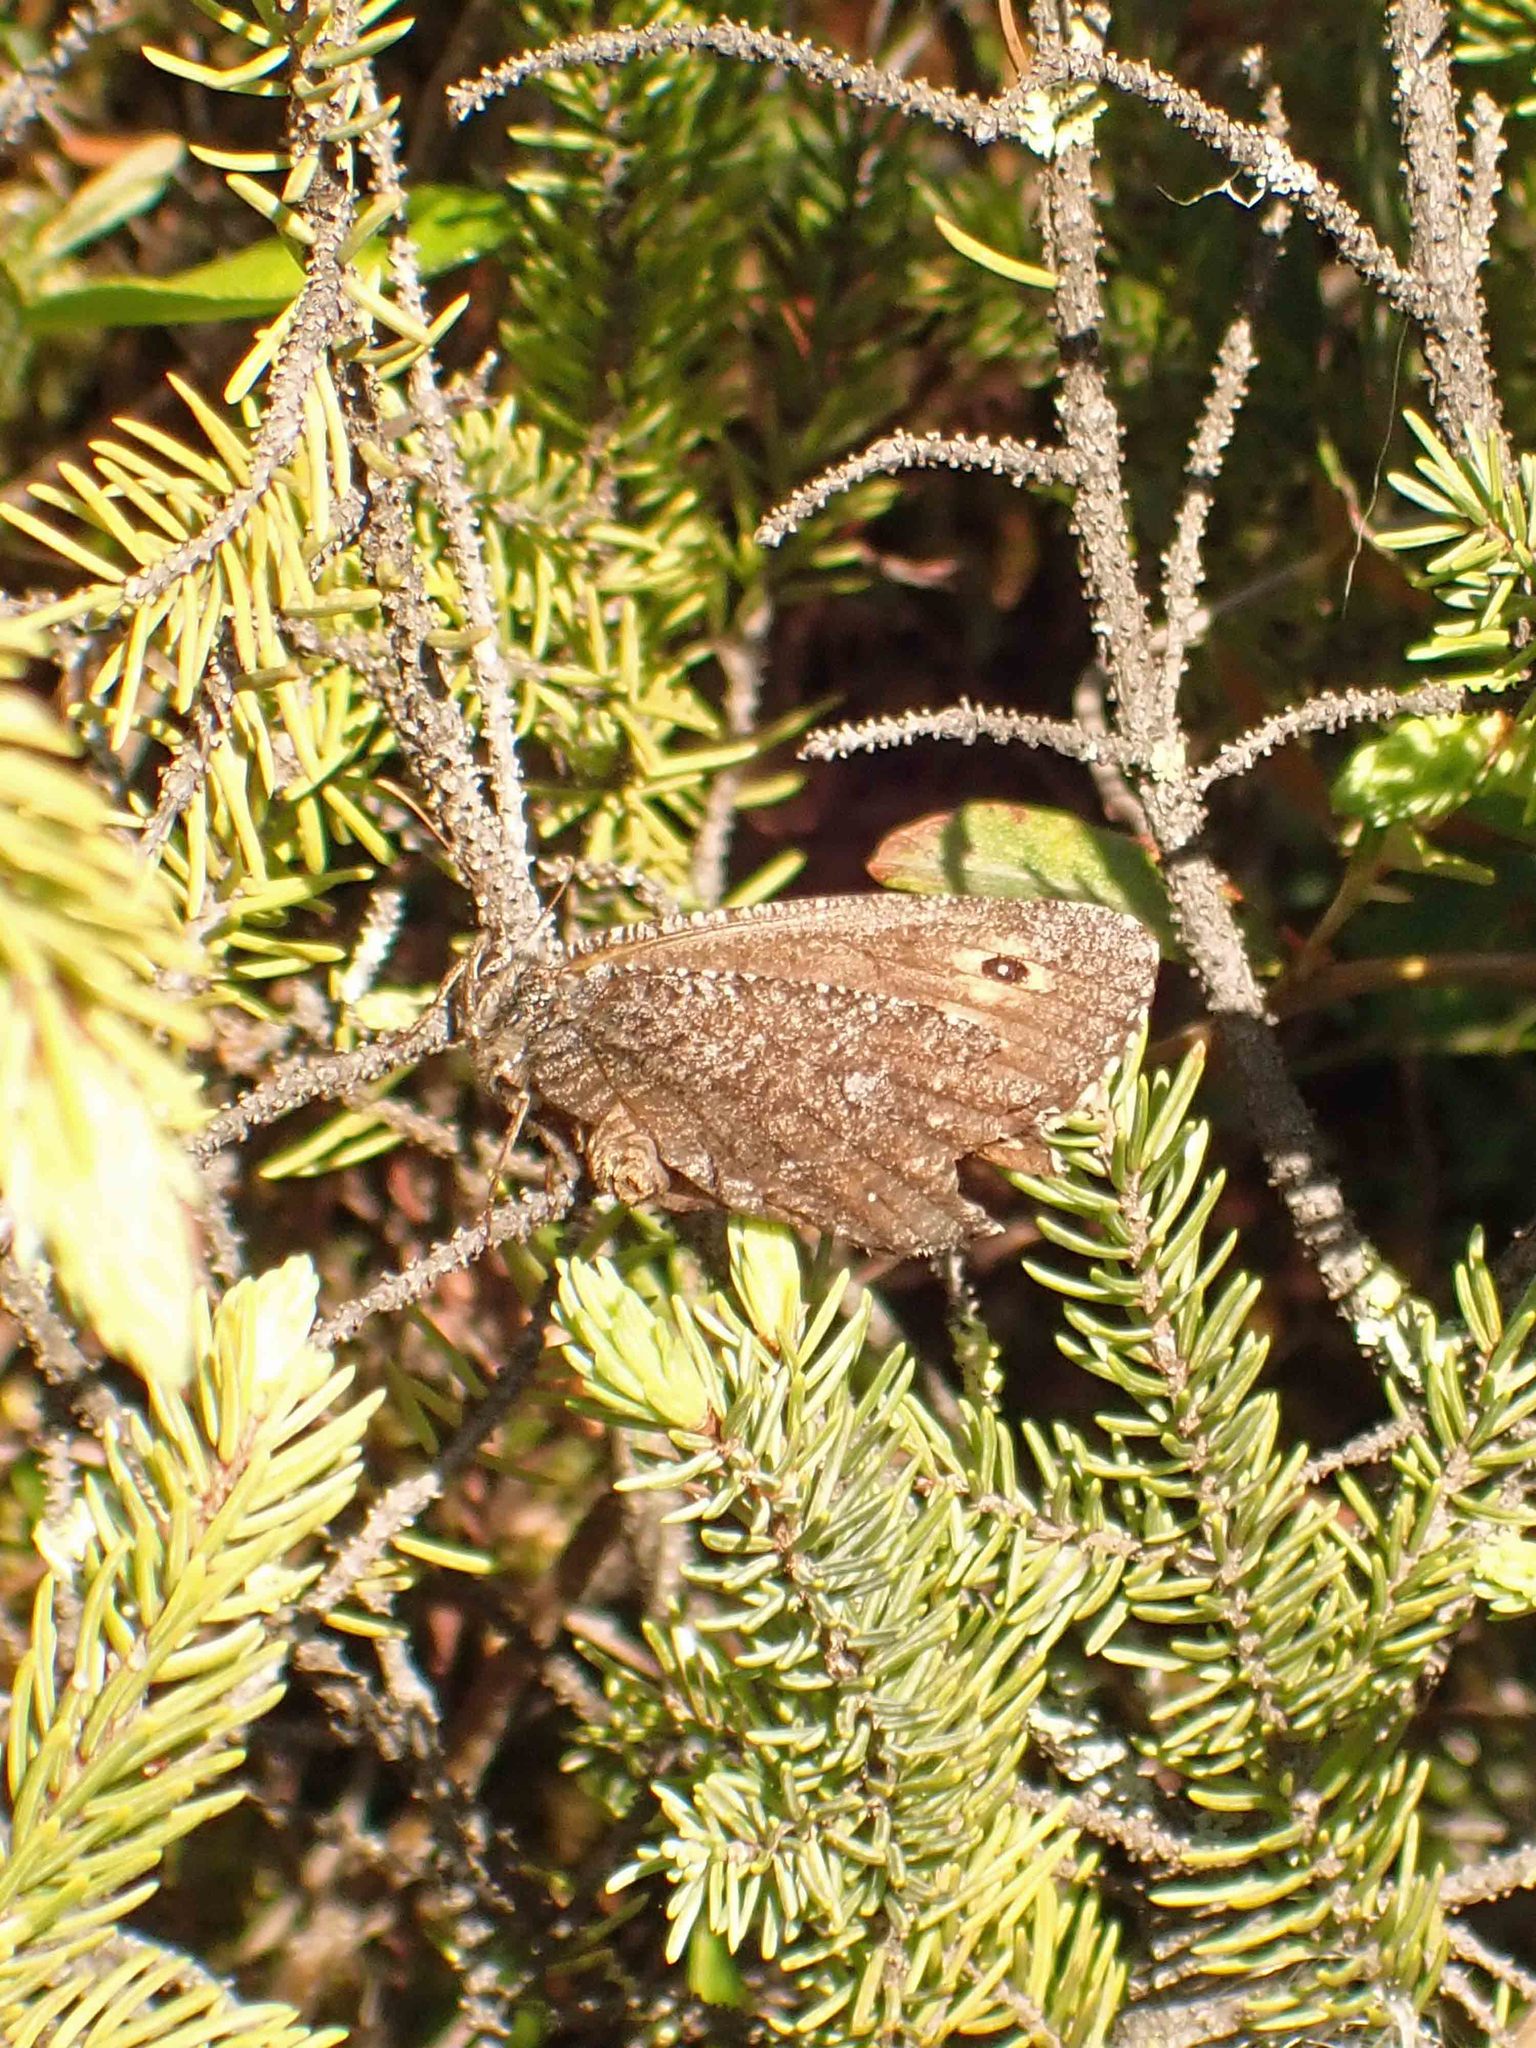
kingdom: Animalia
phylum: Arthropoda
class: Insecta
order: Lepidoptera
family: Nymphalidae
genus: Oeneis
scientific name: Oeneis jutta
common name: Baltic grayling
